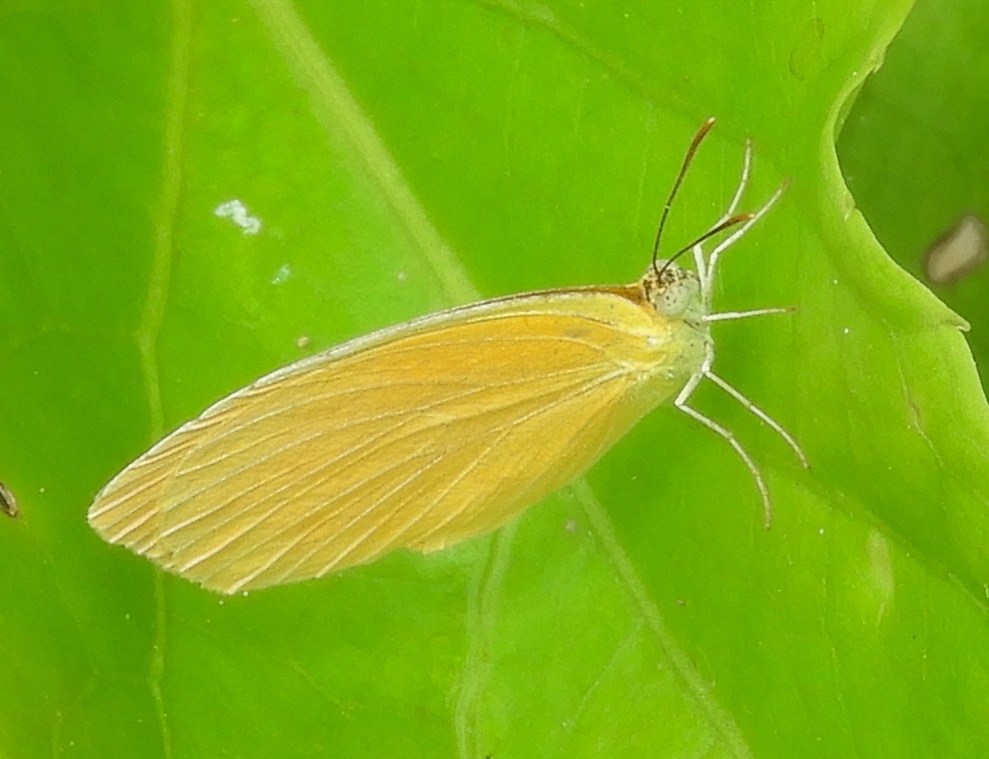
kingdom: Animalia
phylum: Arthropoda
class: Insecta
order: Lepidoptera
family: Pieridae
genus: Pyrisitia
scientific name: Pyrisitia proterpia
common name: Tailed orange
